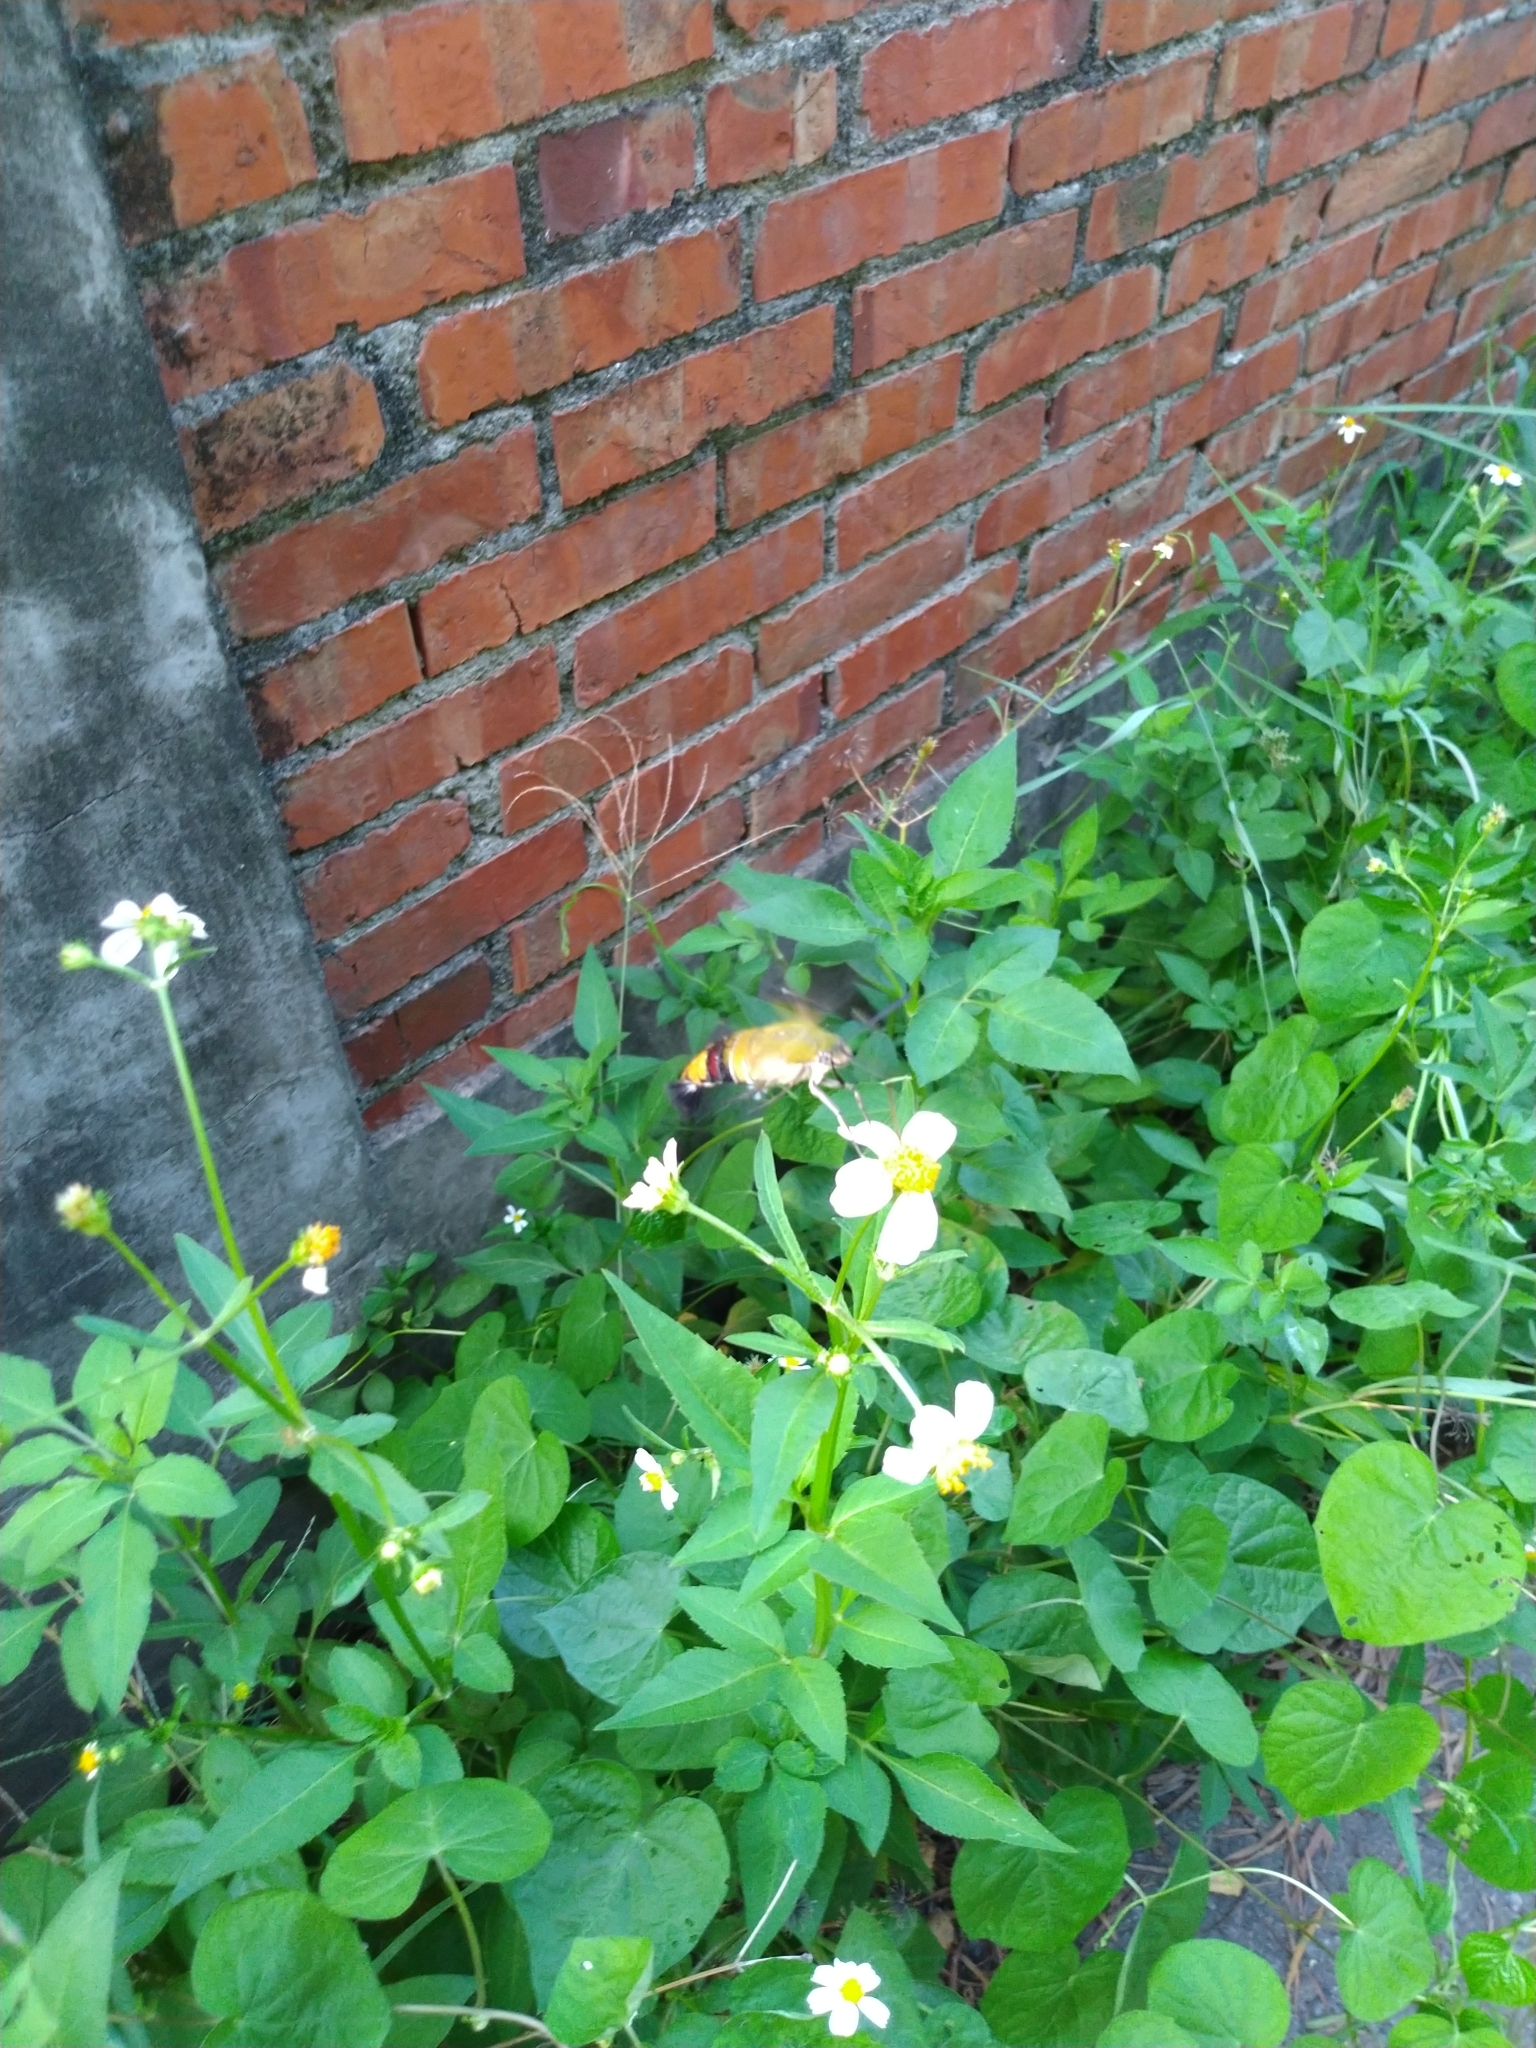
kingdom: Animalia
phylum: Arthropoda
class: Insecta
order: Lepidoptera
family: Sphingidae
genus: Cephonodes
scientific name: Cephonodes hylas
